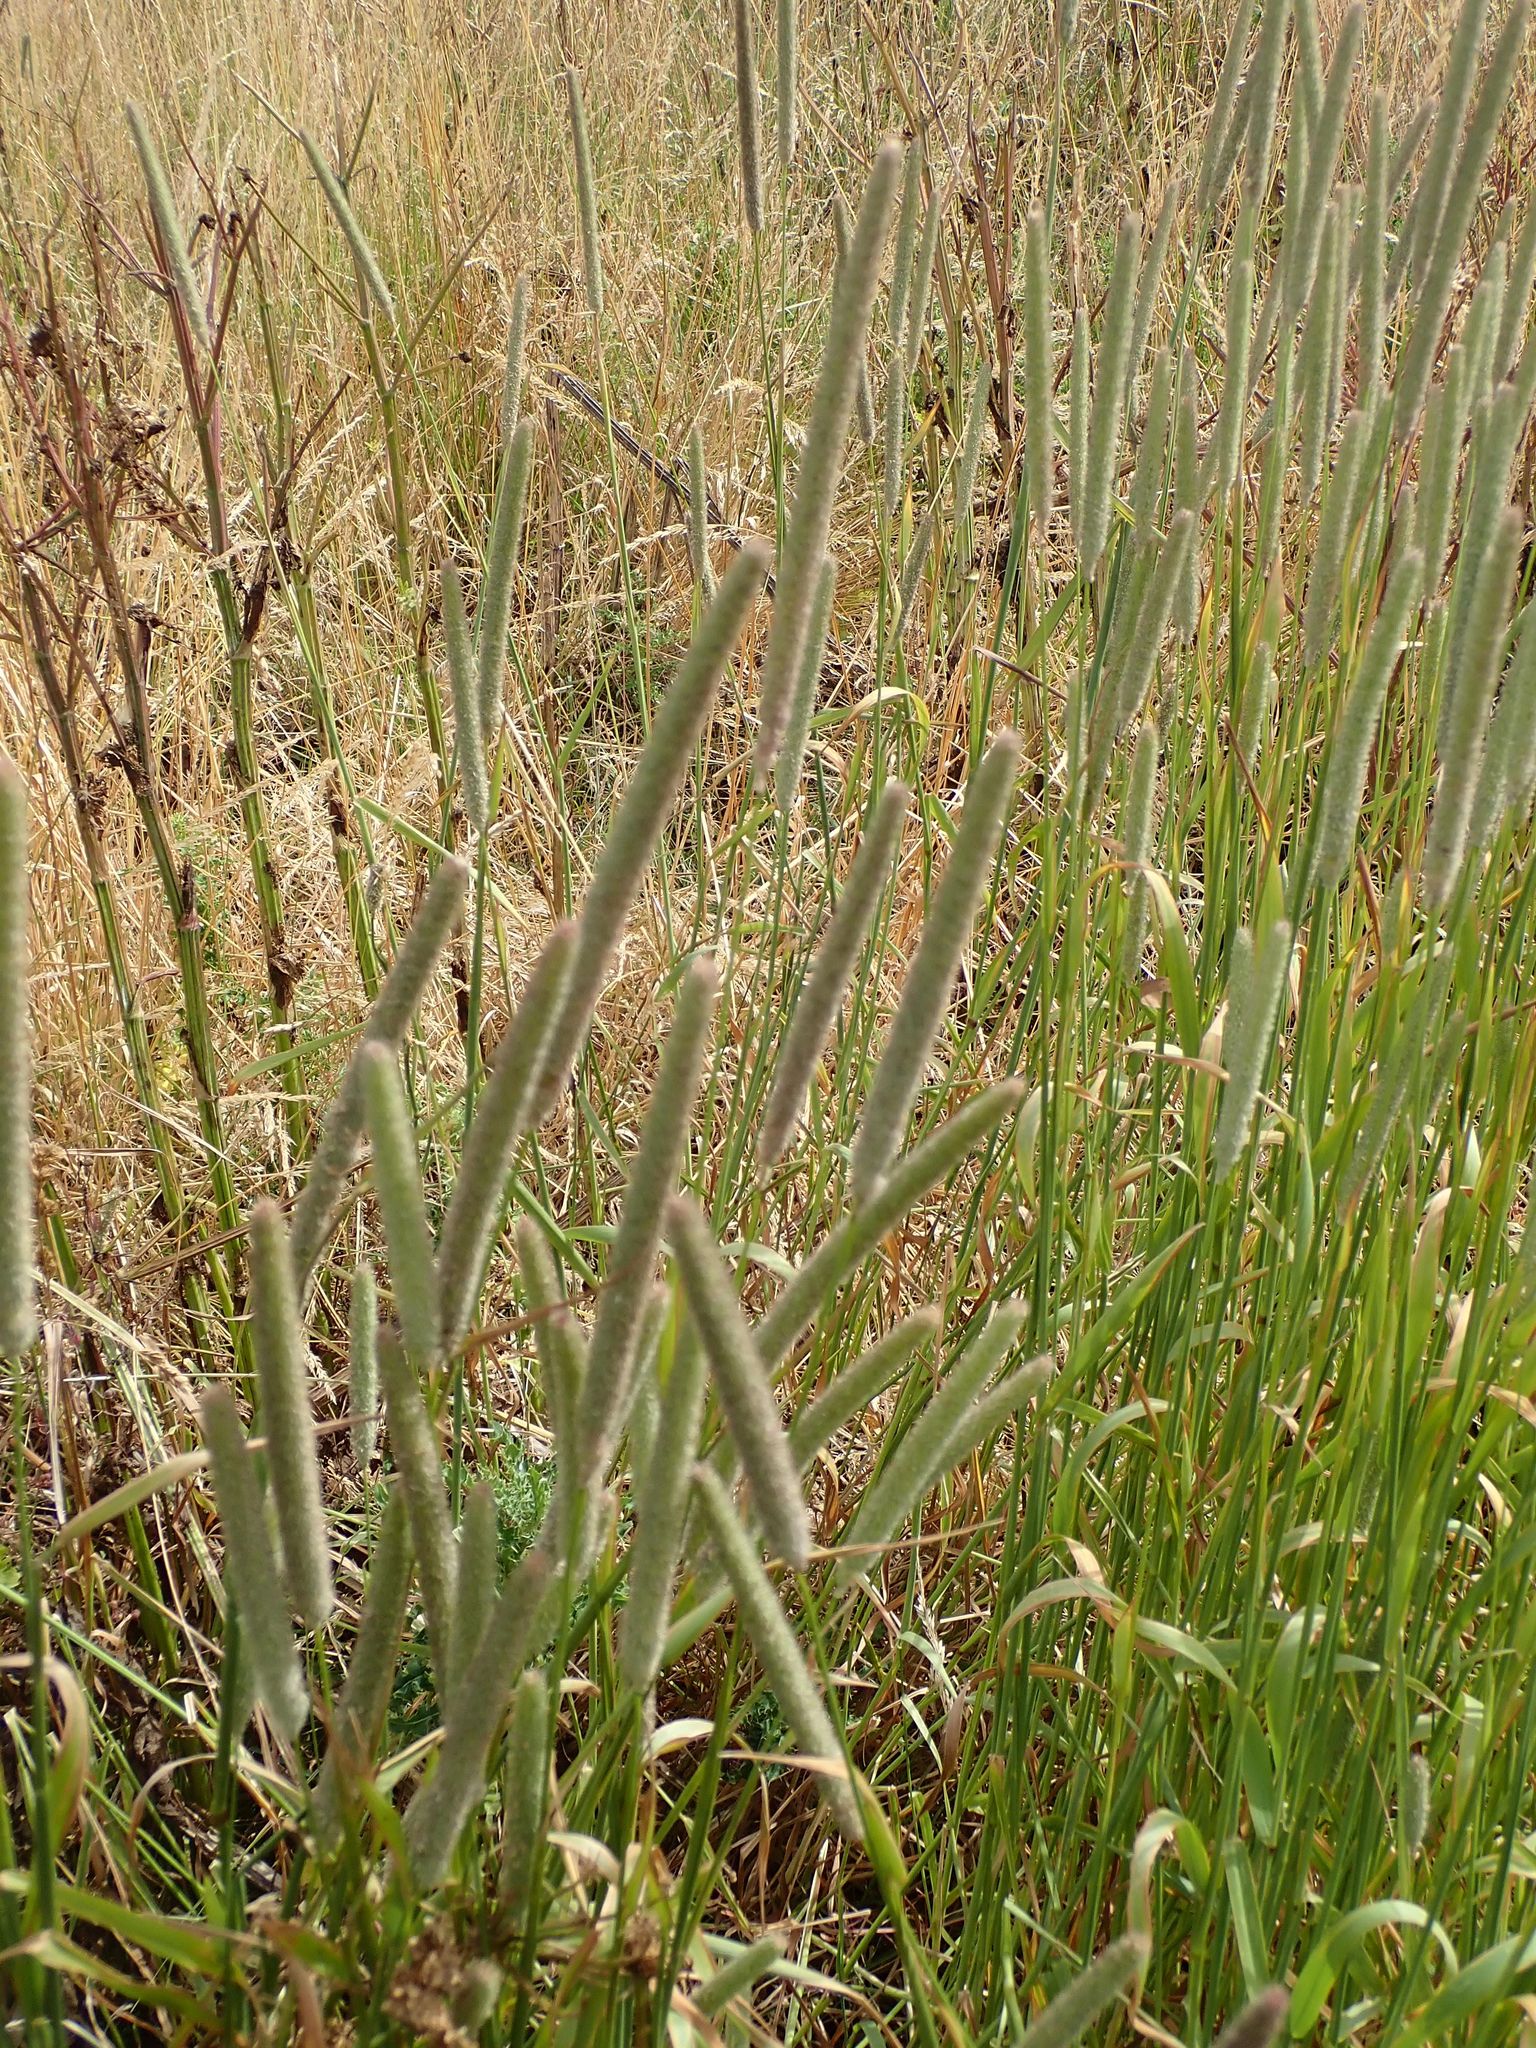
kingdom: Plantae
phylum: Tracheophyta
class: Liliopsida
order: Poales
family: Poaceae
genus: Phleum
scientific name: Phleum pratense
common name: Timothy grass
